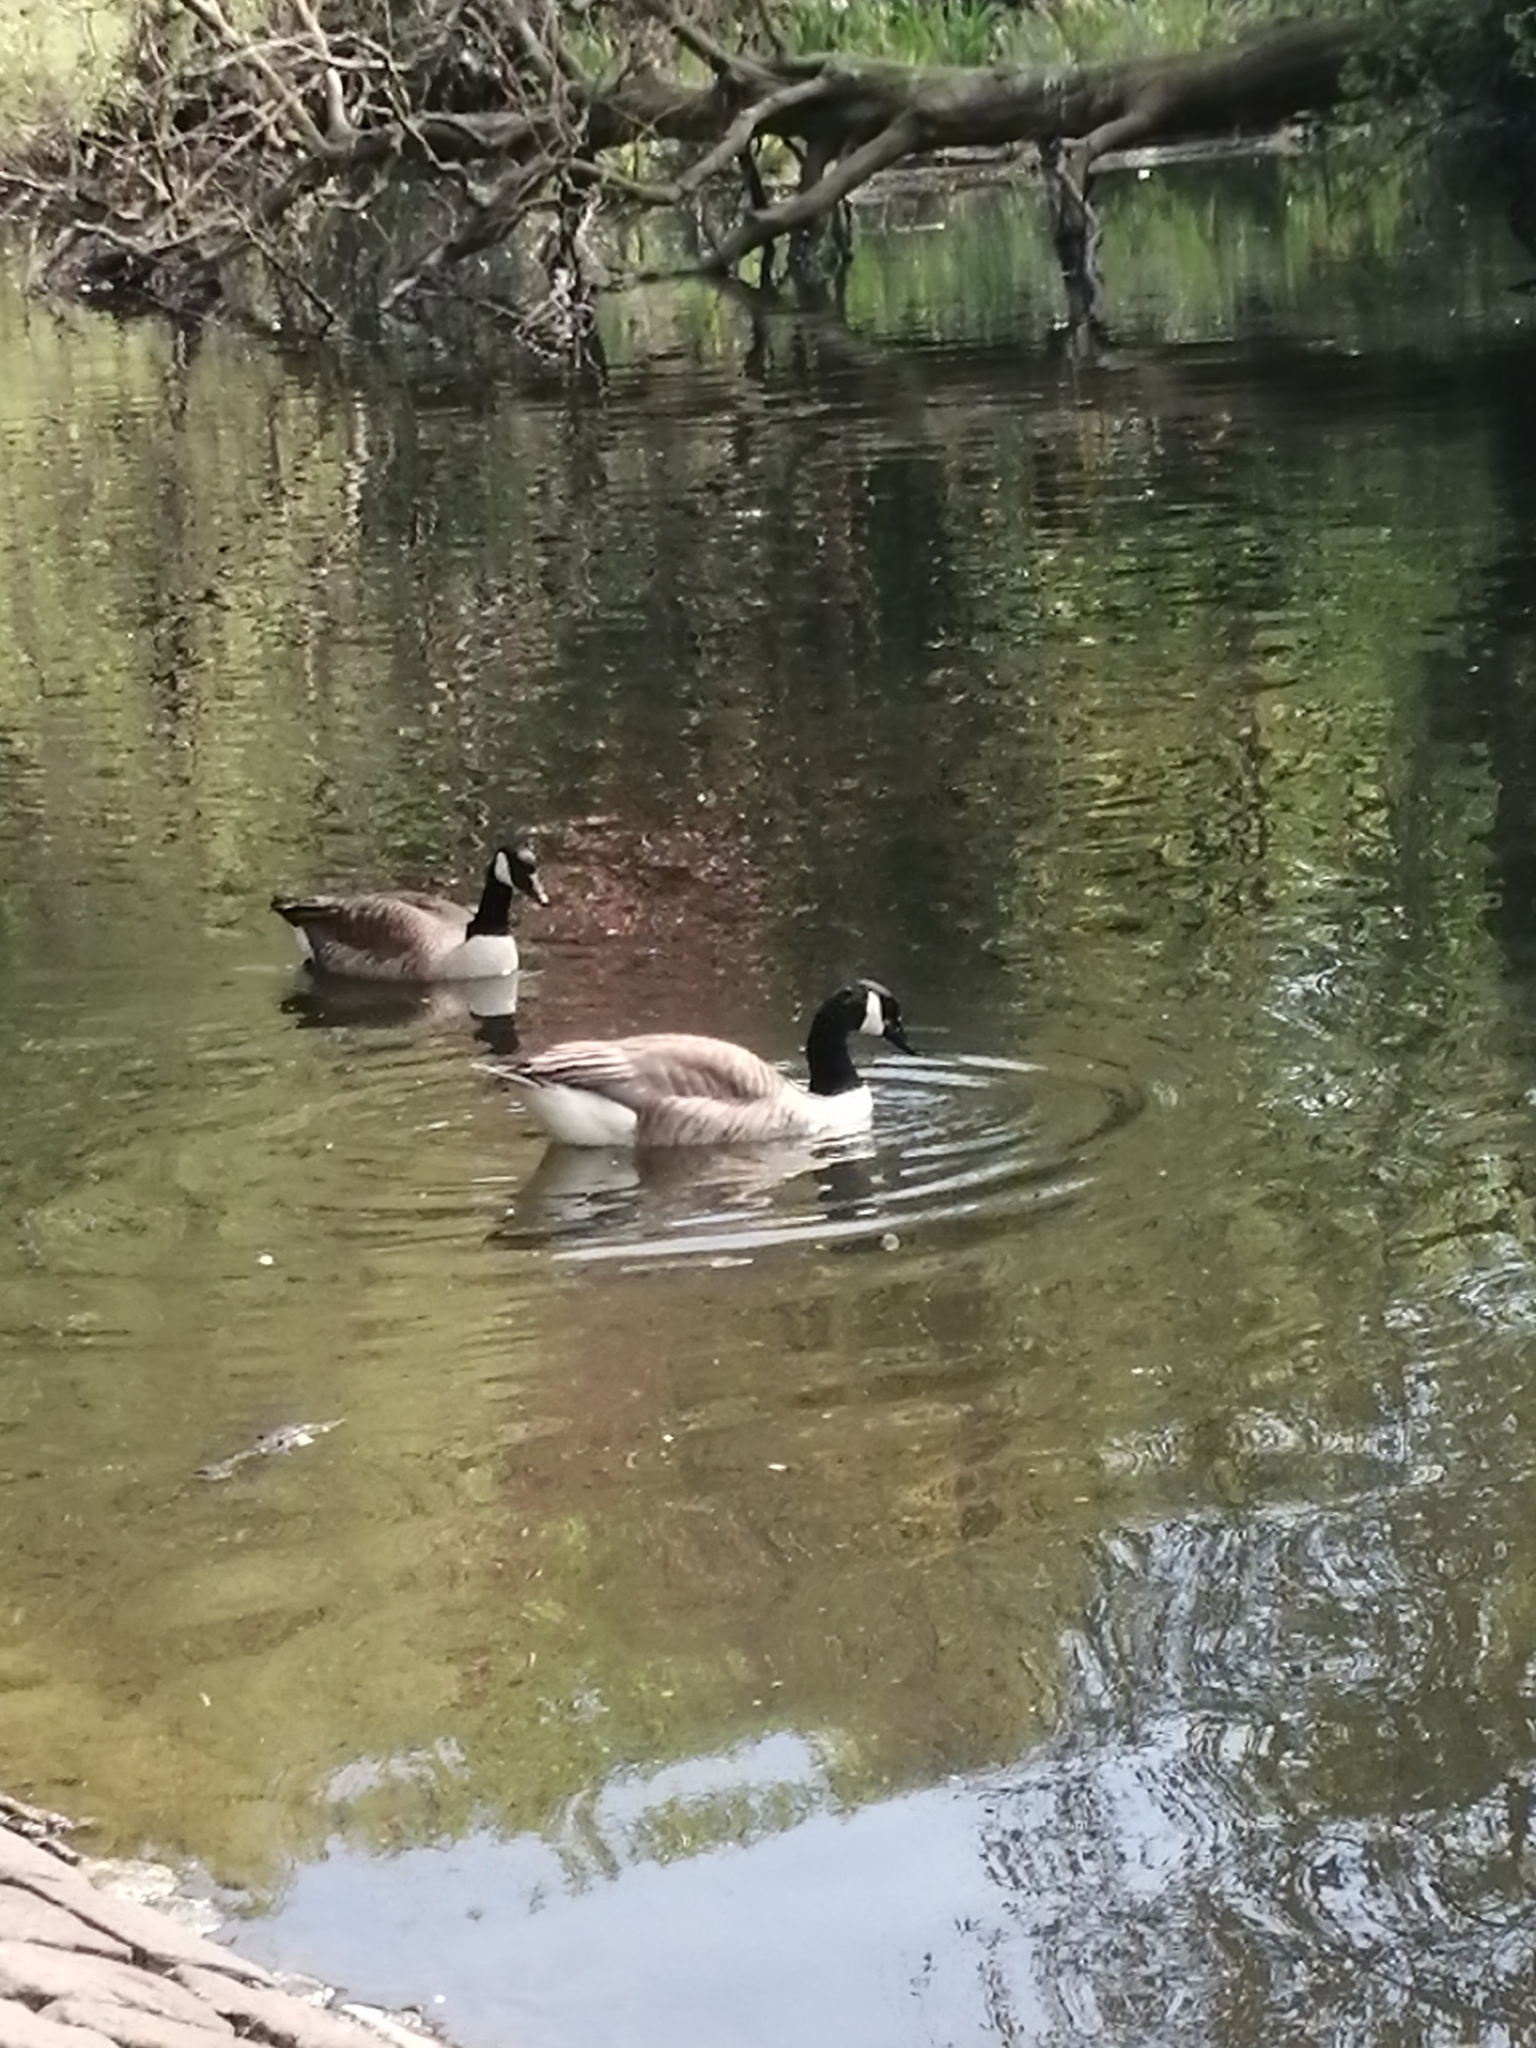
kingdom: Animalia
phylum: Chordata
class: Aves
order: Anseriformes
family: Anatidae
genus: Branta
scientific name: Branta canadensis
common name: Canada goose
